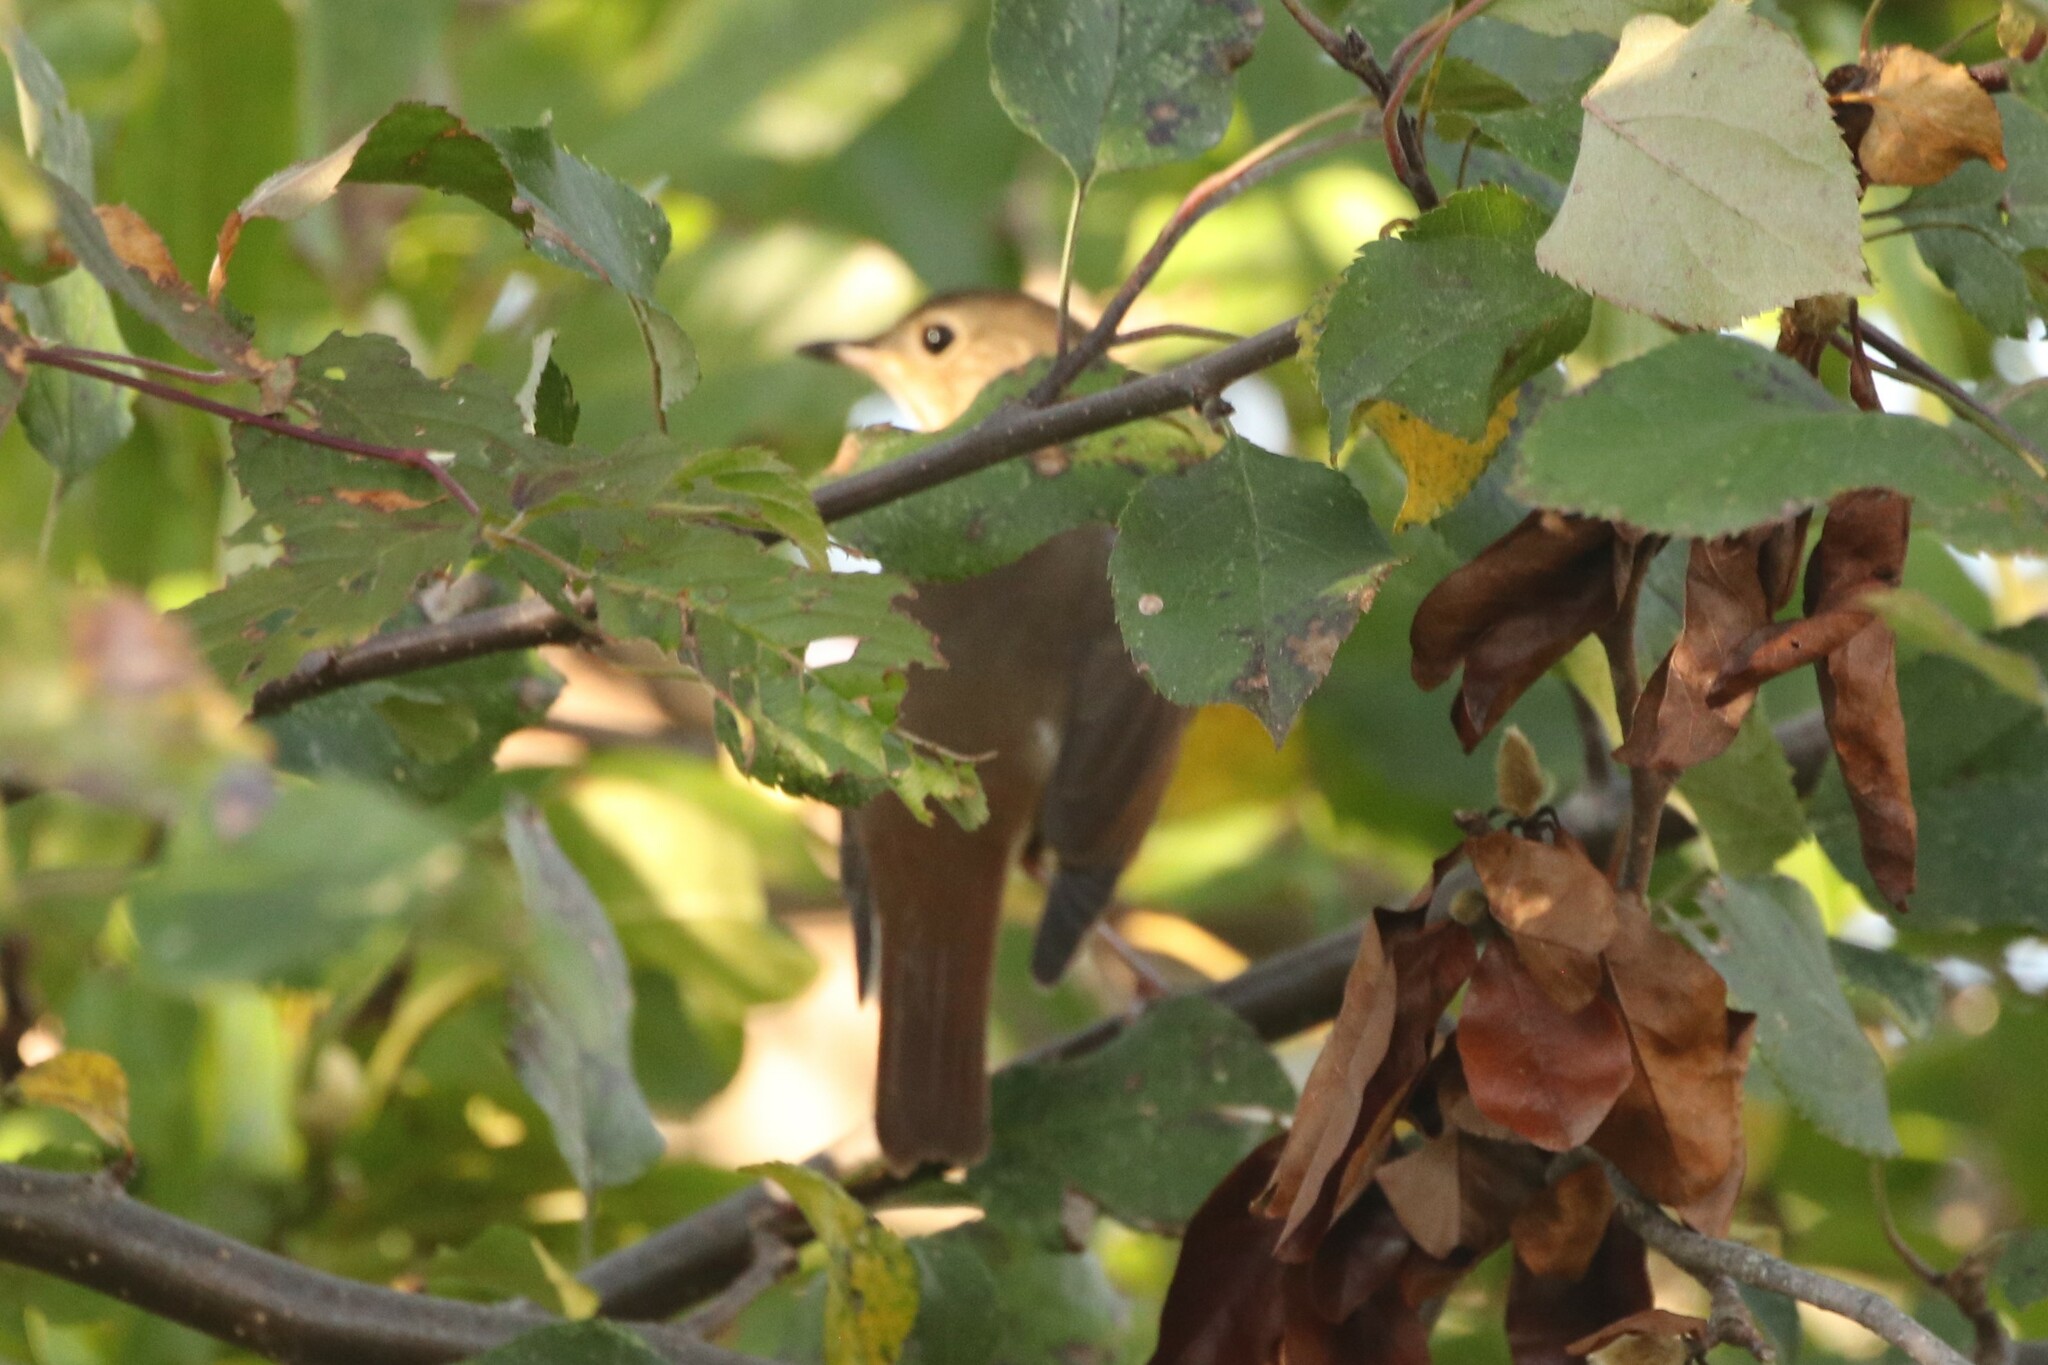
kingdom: Animalia
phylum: Chordata
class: Aves
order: Passeriformes
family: Turdidae
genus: Catharus
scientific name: Catharus guttatus
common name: Hermit thrush
